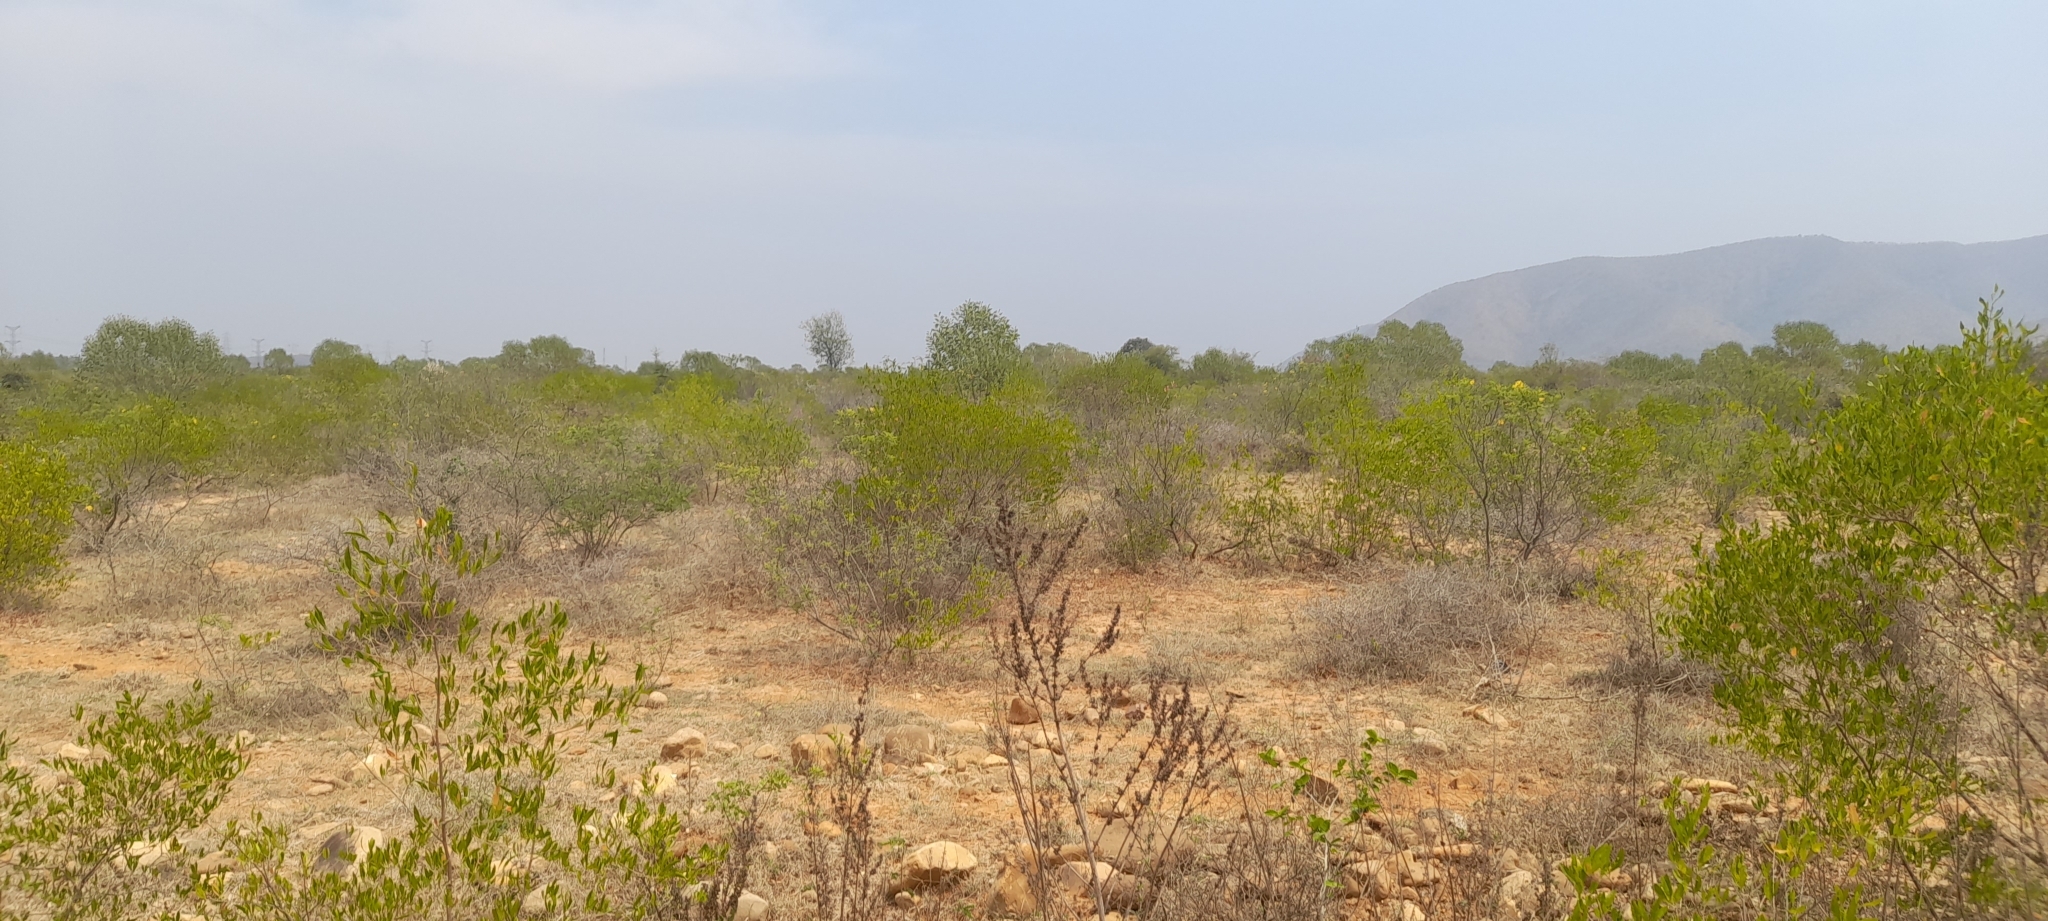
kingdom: Plantae
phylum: Tracheophyta
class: Magnoliopsida
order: Sapindales
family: Sapindaceae
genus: Dodonaea
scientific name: Dodonaea viscosa
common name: Hopbush
